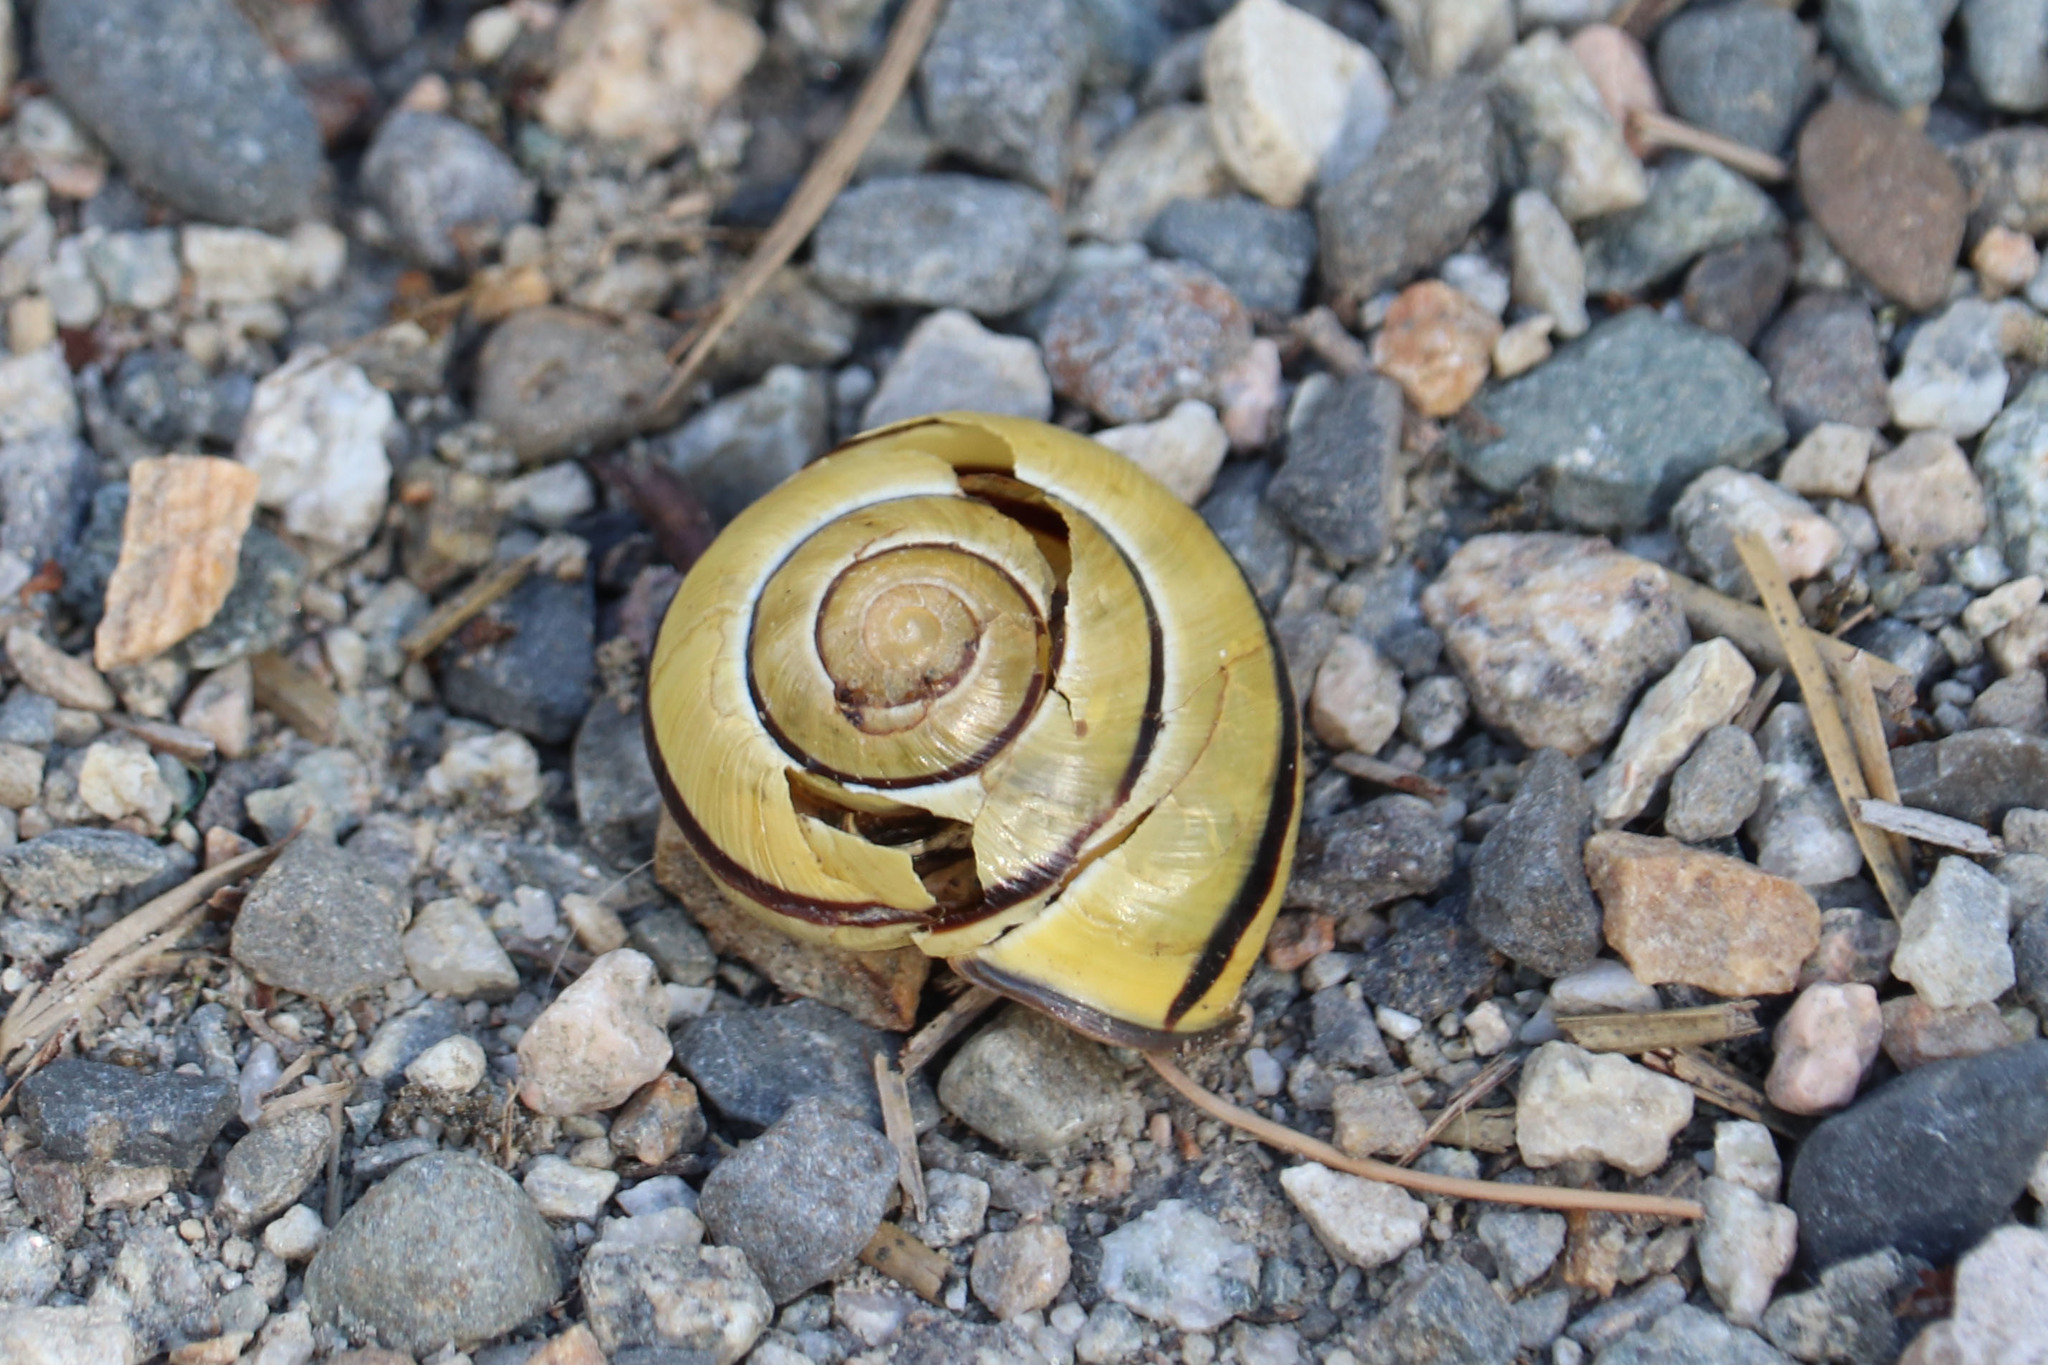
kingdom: Animalia
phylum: Mollusca
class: Gastropoda
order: Stylommatophora
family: Helicidae
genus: Cepaea
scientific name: Cepaea nemoralis
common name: Grovesnail
